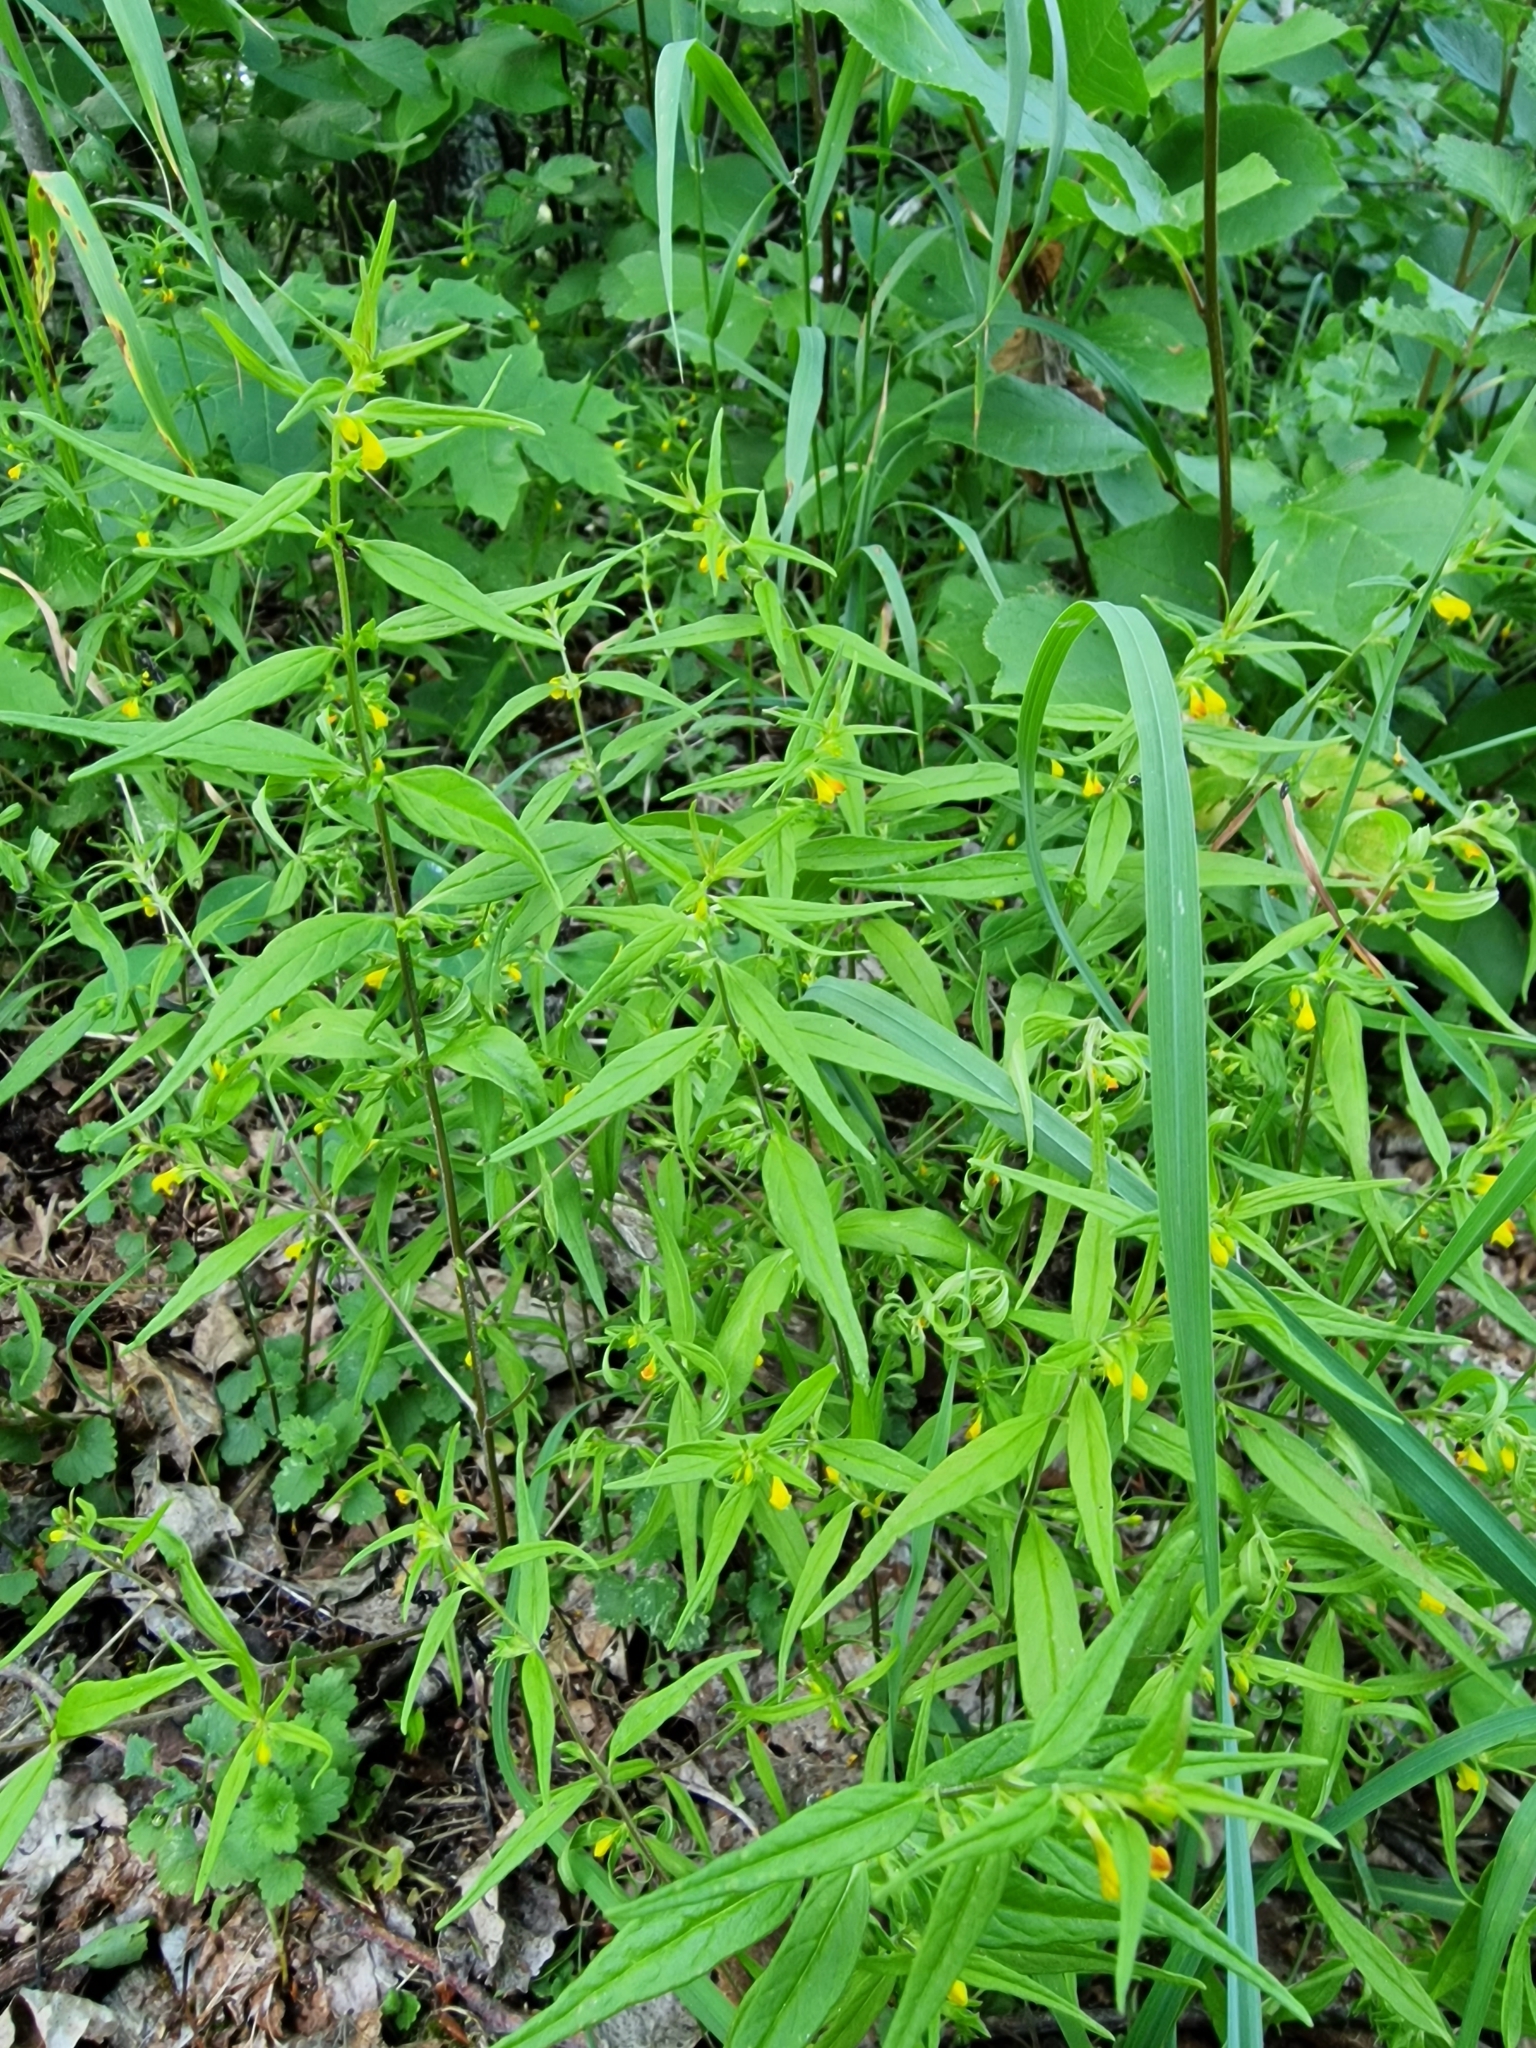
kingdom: Plantae
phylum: Tracheophyta
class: Magnoliopsida
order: Lamiales
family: Orobanchaceae
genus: Melampyrum
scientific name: Melampyrum sylvaticum
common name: Small cow-wheat
